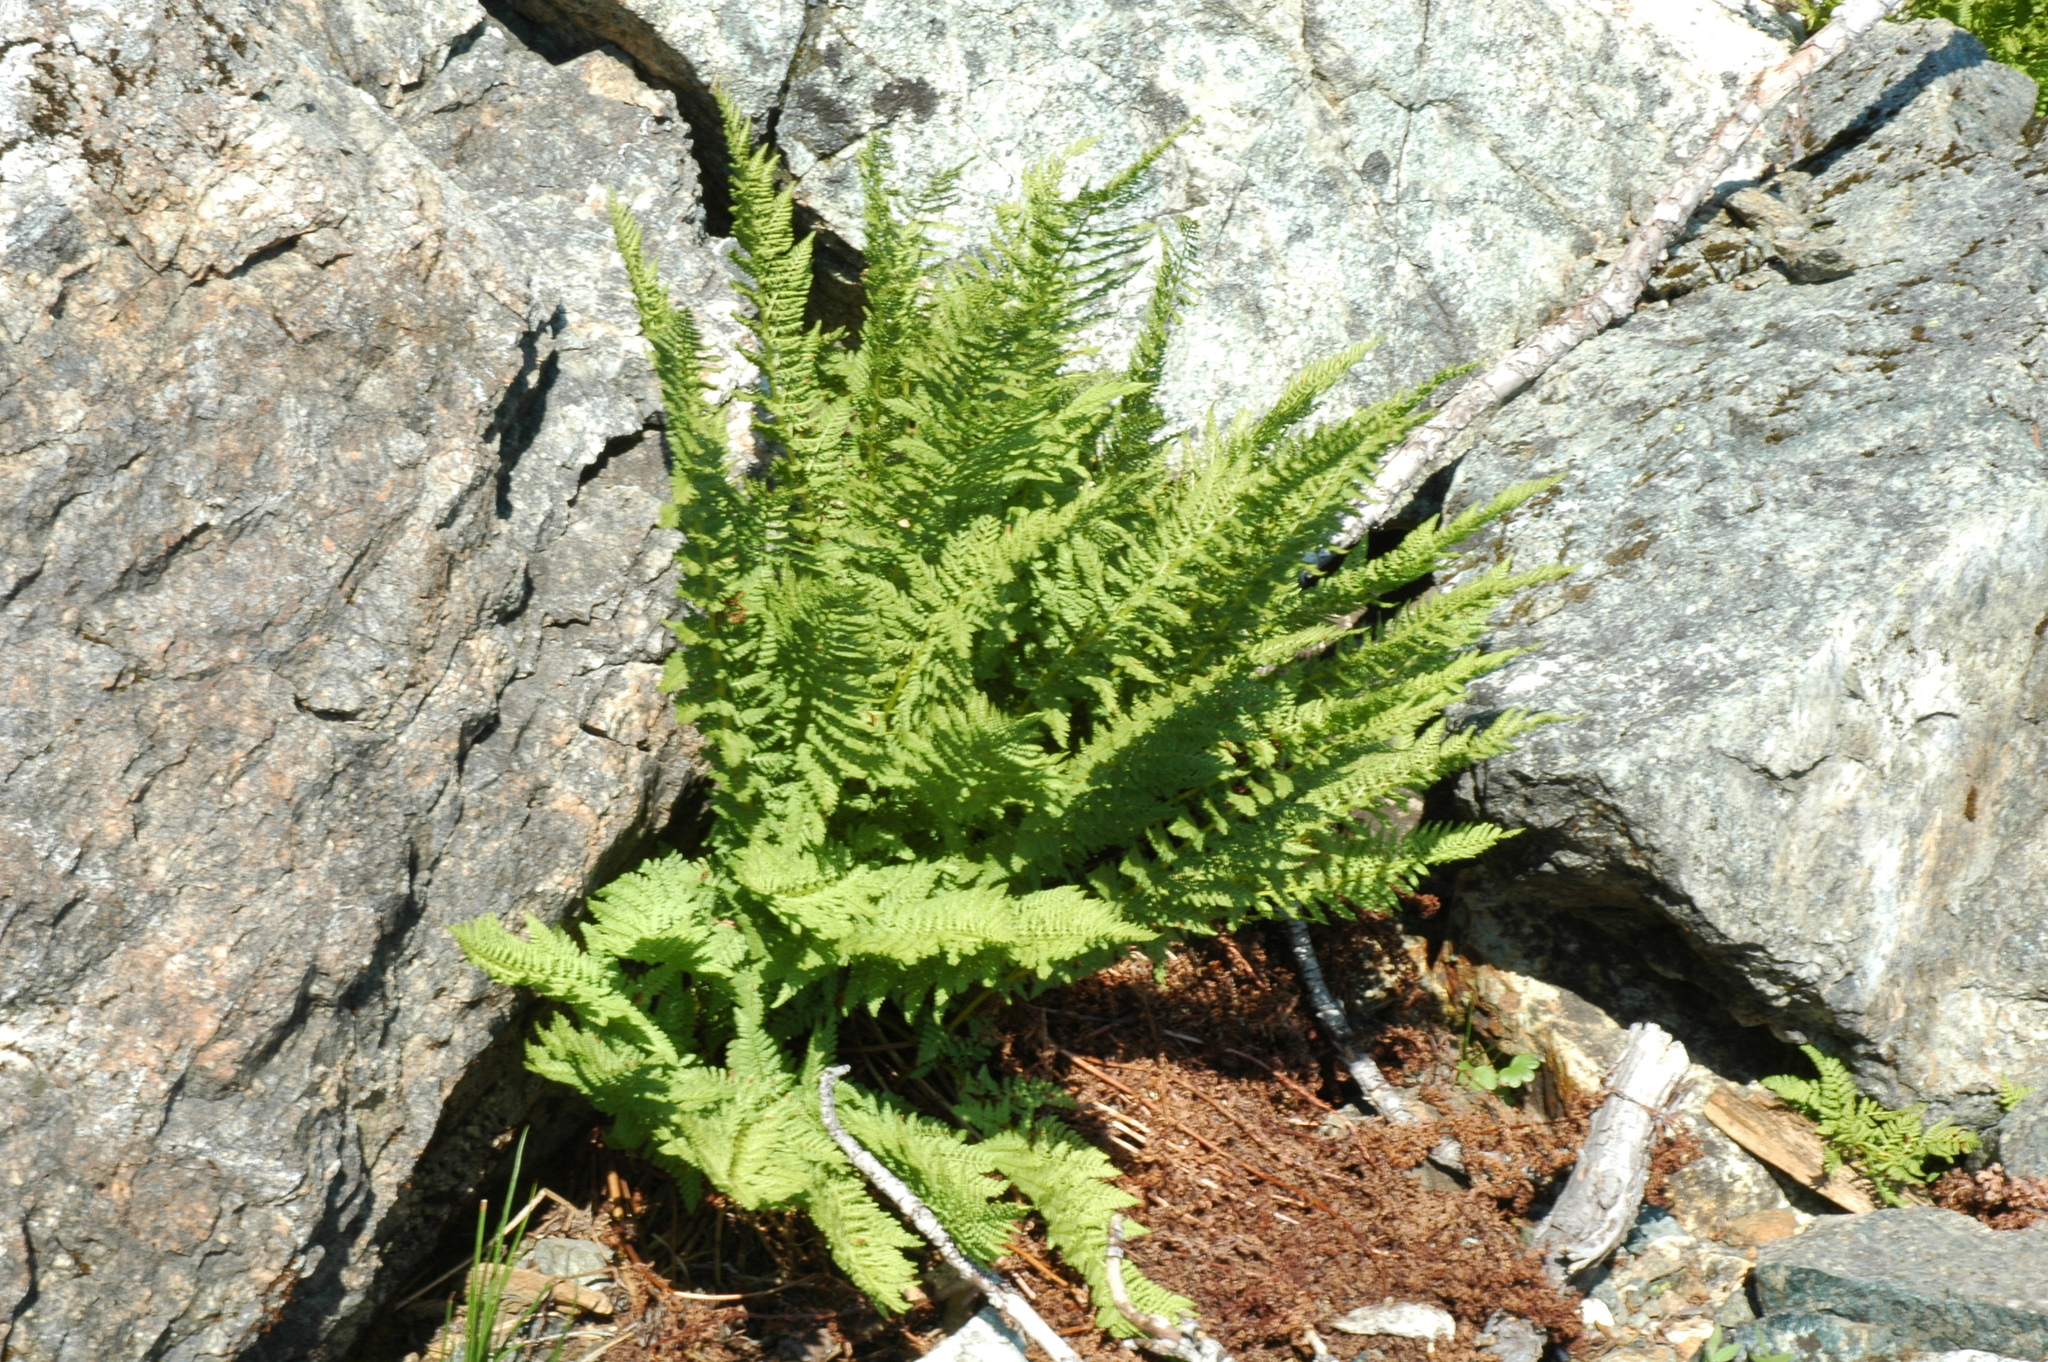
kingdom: Plantae
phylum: Tracheophyta
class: Polypodiopsida
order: Polypodiales
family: Athyriaceae
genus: Athyrium
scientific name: Athyrium americanum
